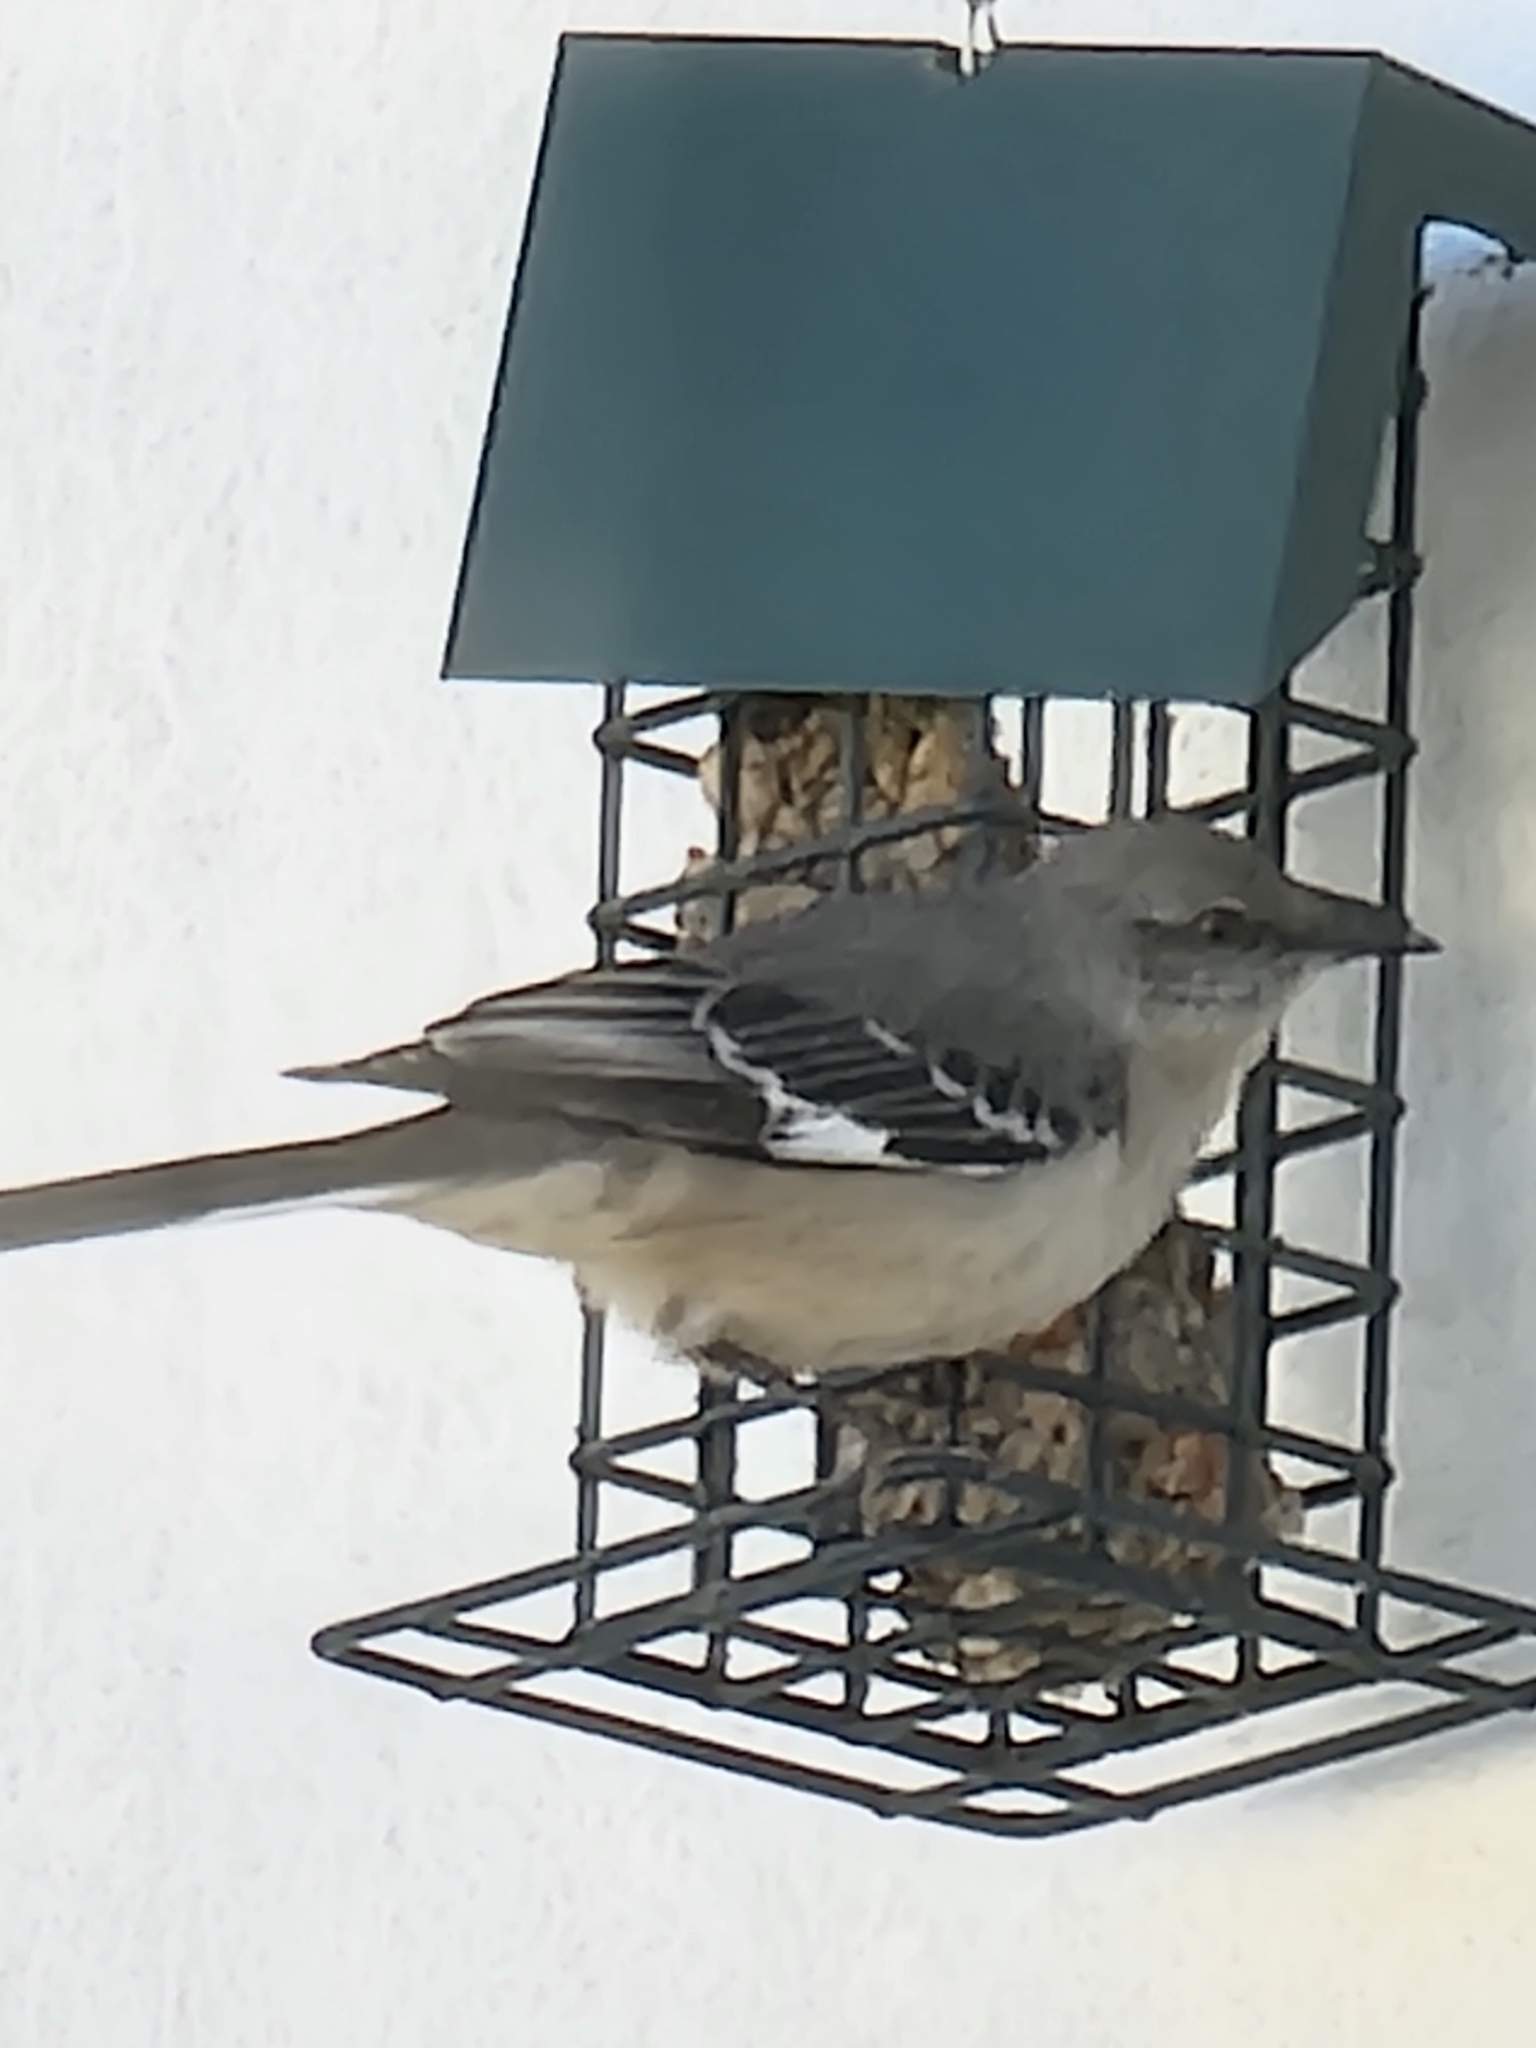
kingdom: Animalia
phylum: Chordata
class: Aves
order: Passeriformes
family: Mimidae
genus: Mimus
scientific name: Mimus polyglottos
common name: Northern mockingbird
